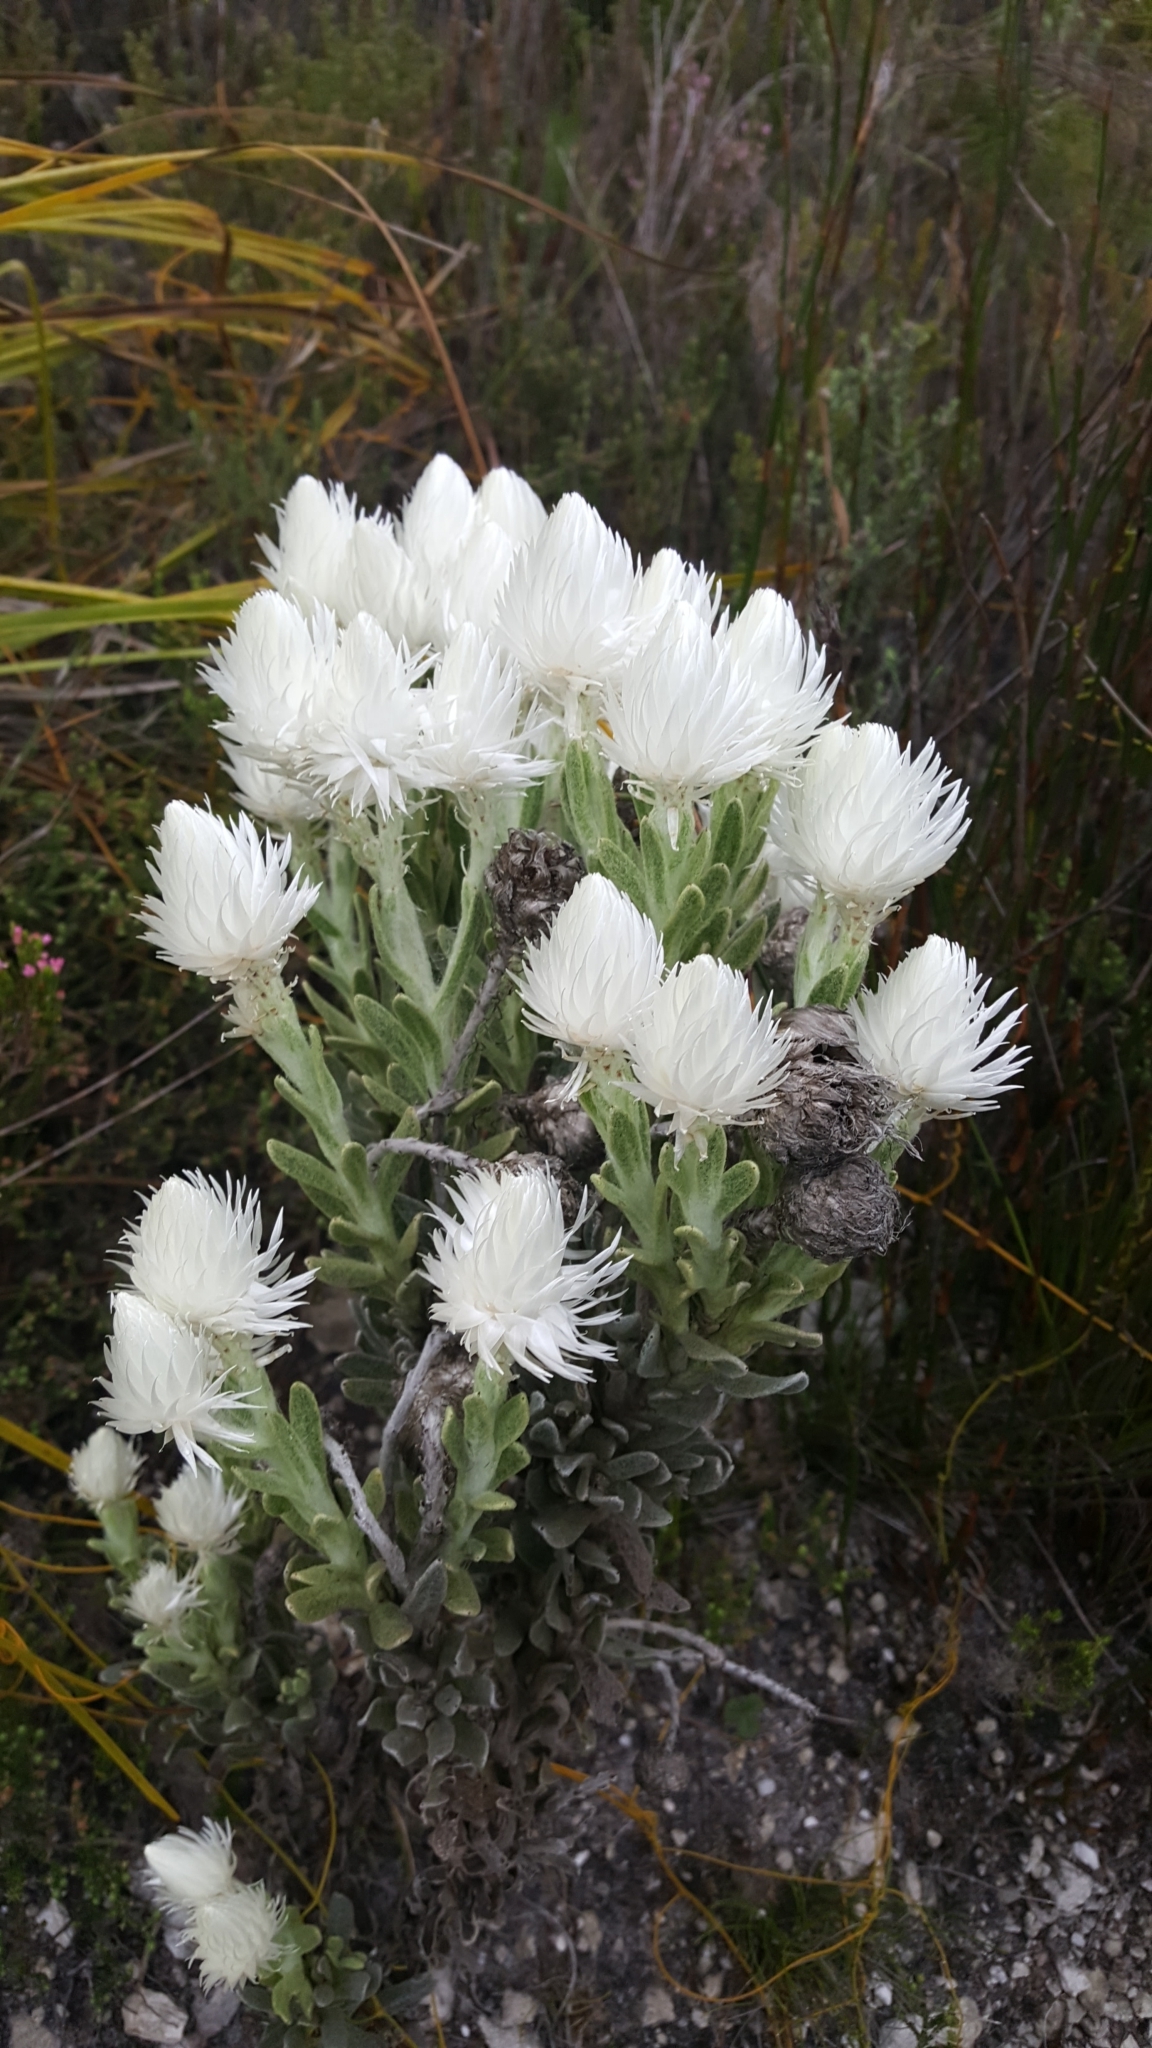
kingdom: Plantae
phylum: Tracheophyta
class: Magnoliopsida
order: Asterales
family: Asteraceae
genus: Syncarpha
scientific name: Syncarpha vestita
